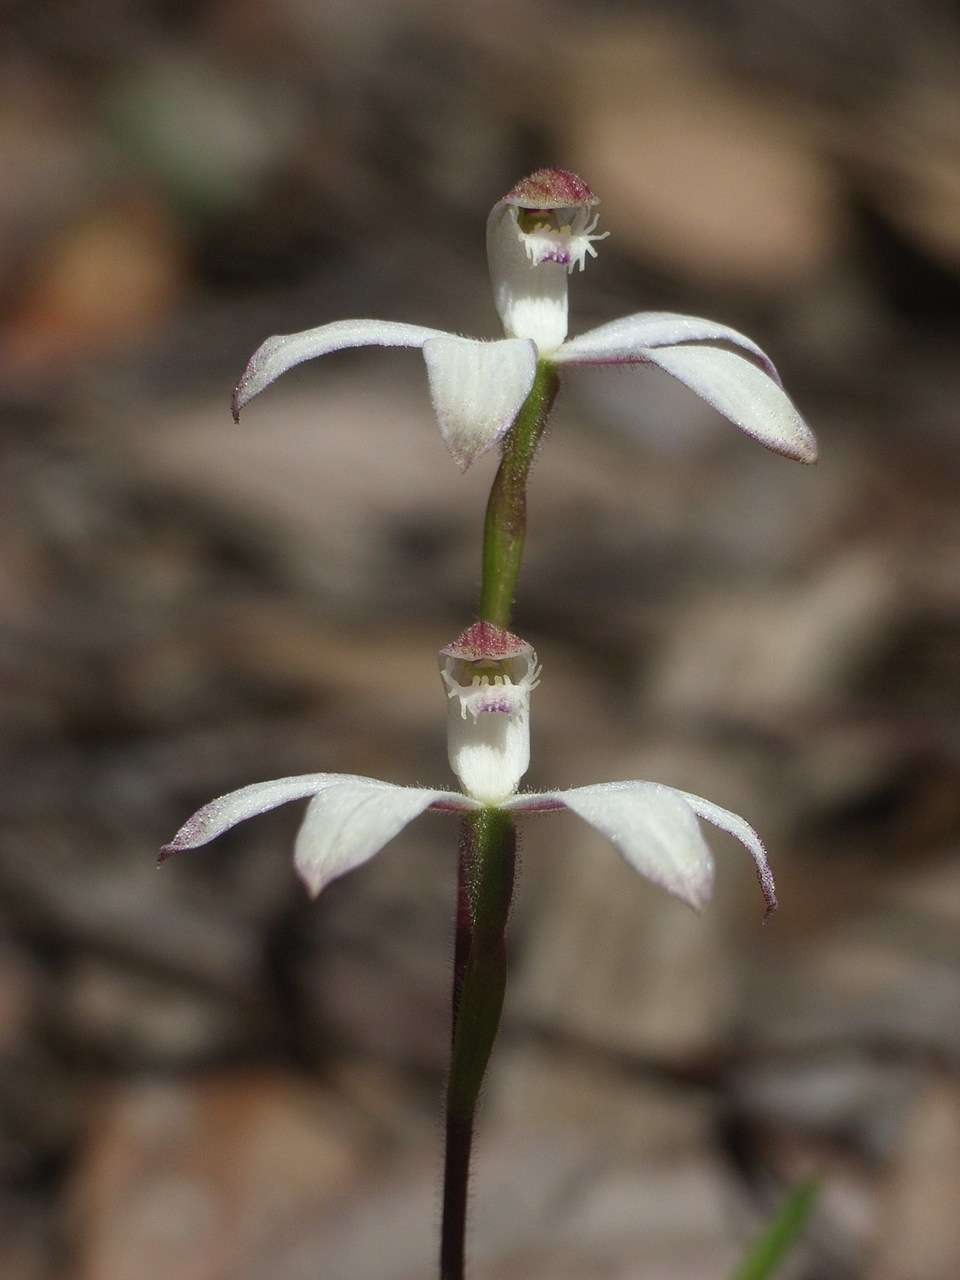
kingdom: Plantae
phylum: Tracheophyta
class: Liliopsida
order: Asparagales
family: Orchidaceae
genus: Caladenia
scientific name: Caladenia dimorpha
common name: Spicy caps
